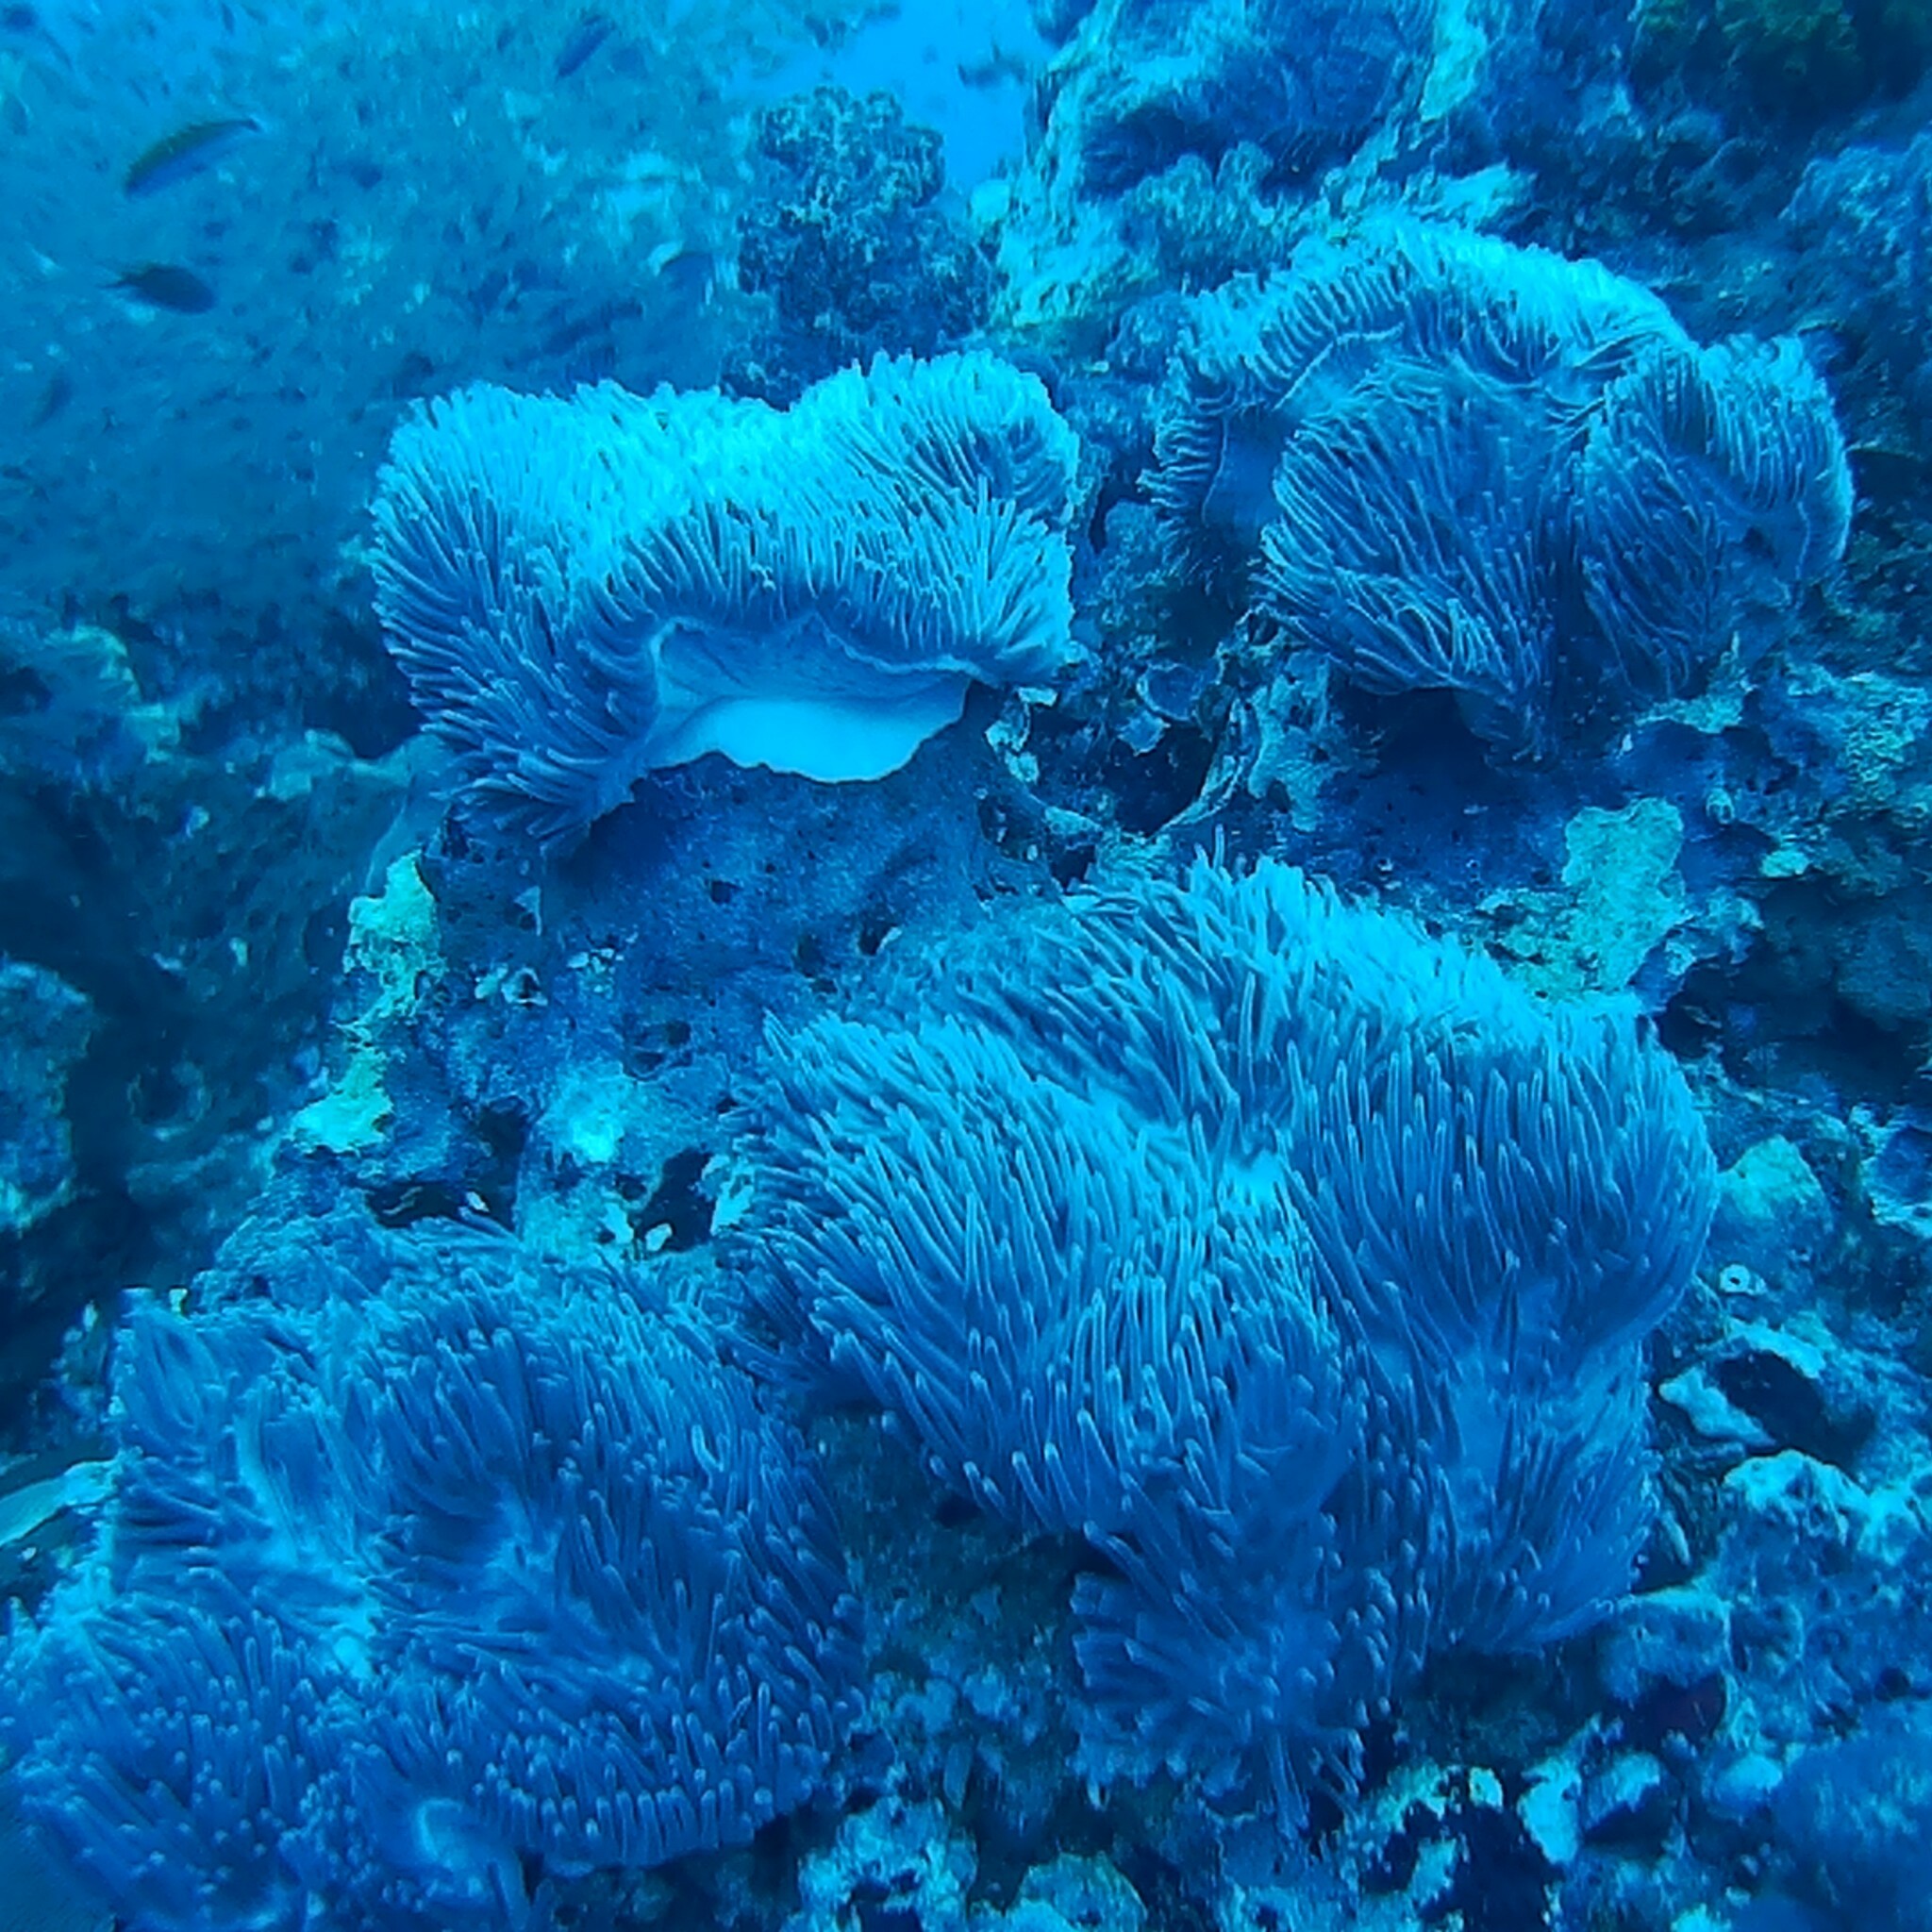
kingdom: Animalia
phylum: Cnidaria
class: Anthozoa
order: Actiniaria
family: Stichodactylidae
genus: Radianthus
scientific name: Radianthus magnifica
